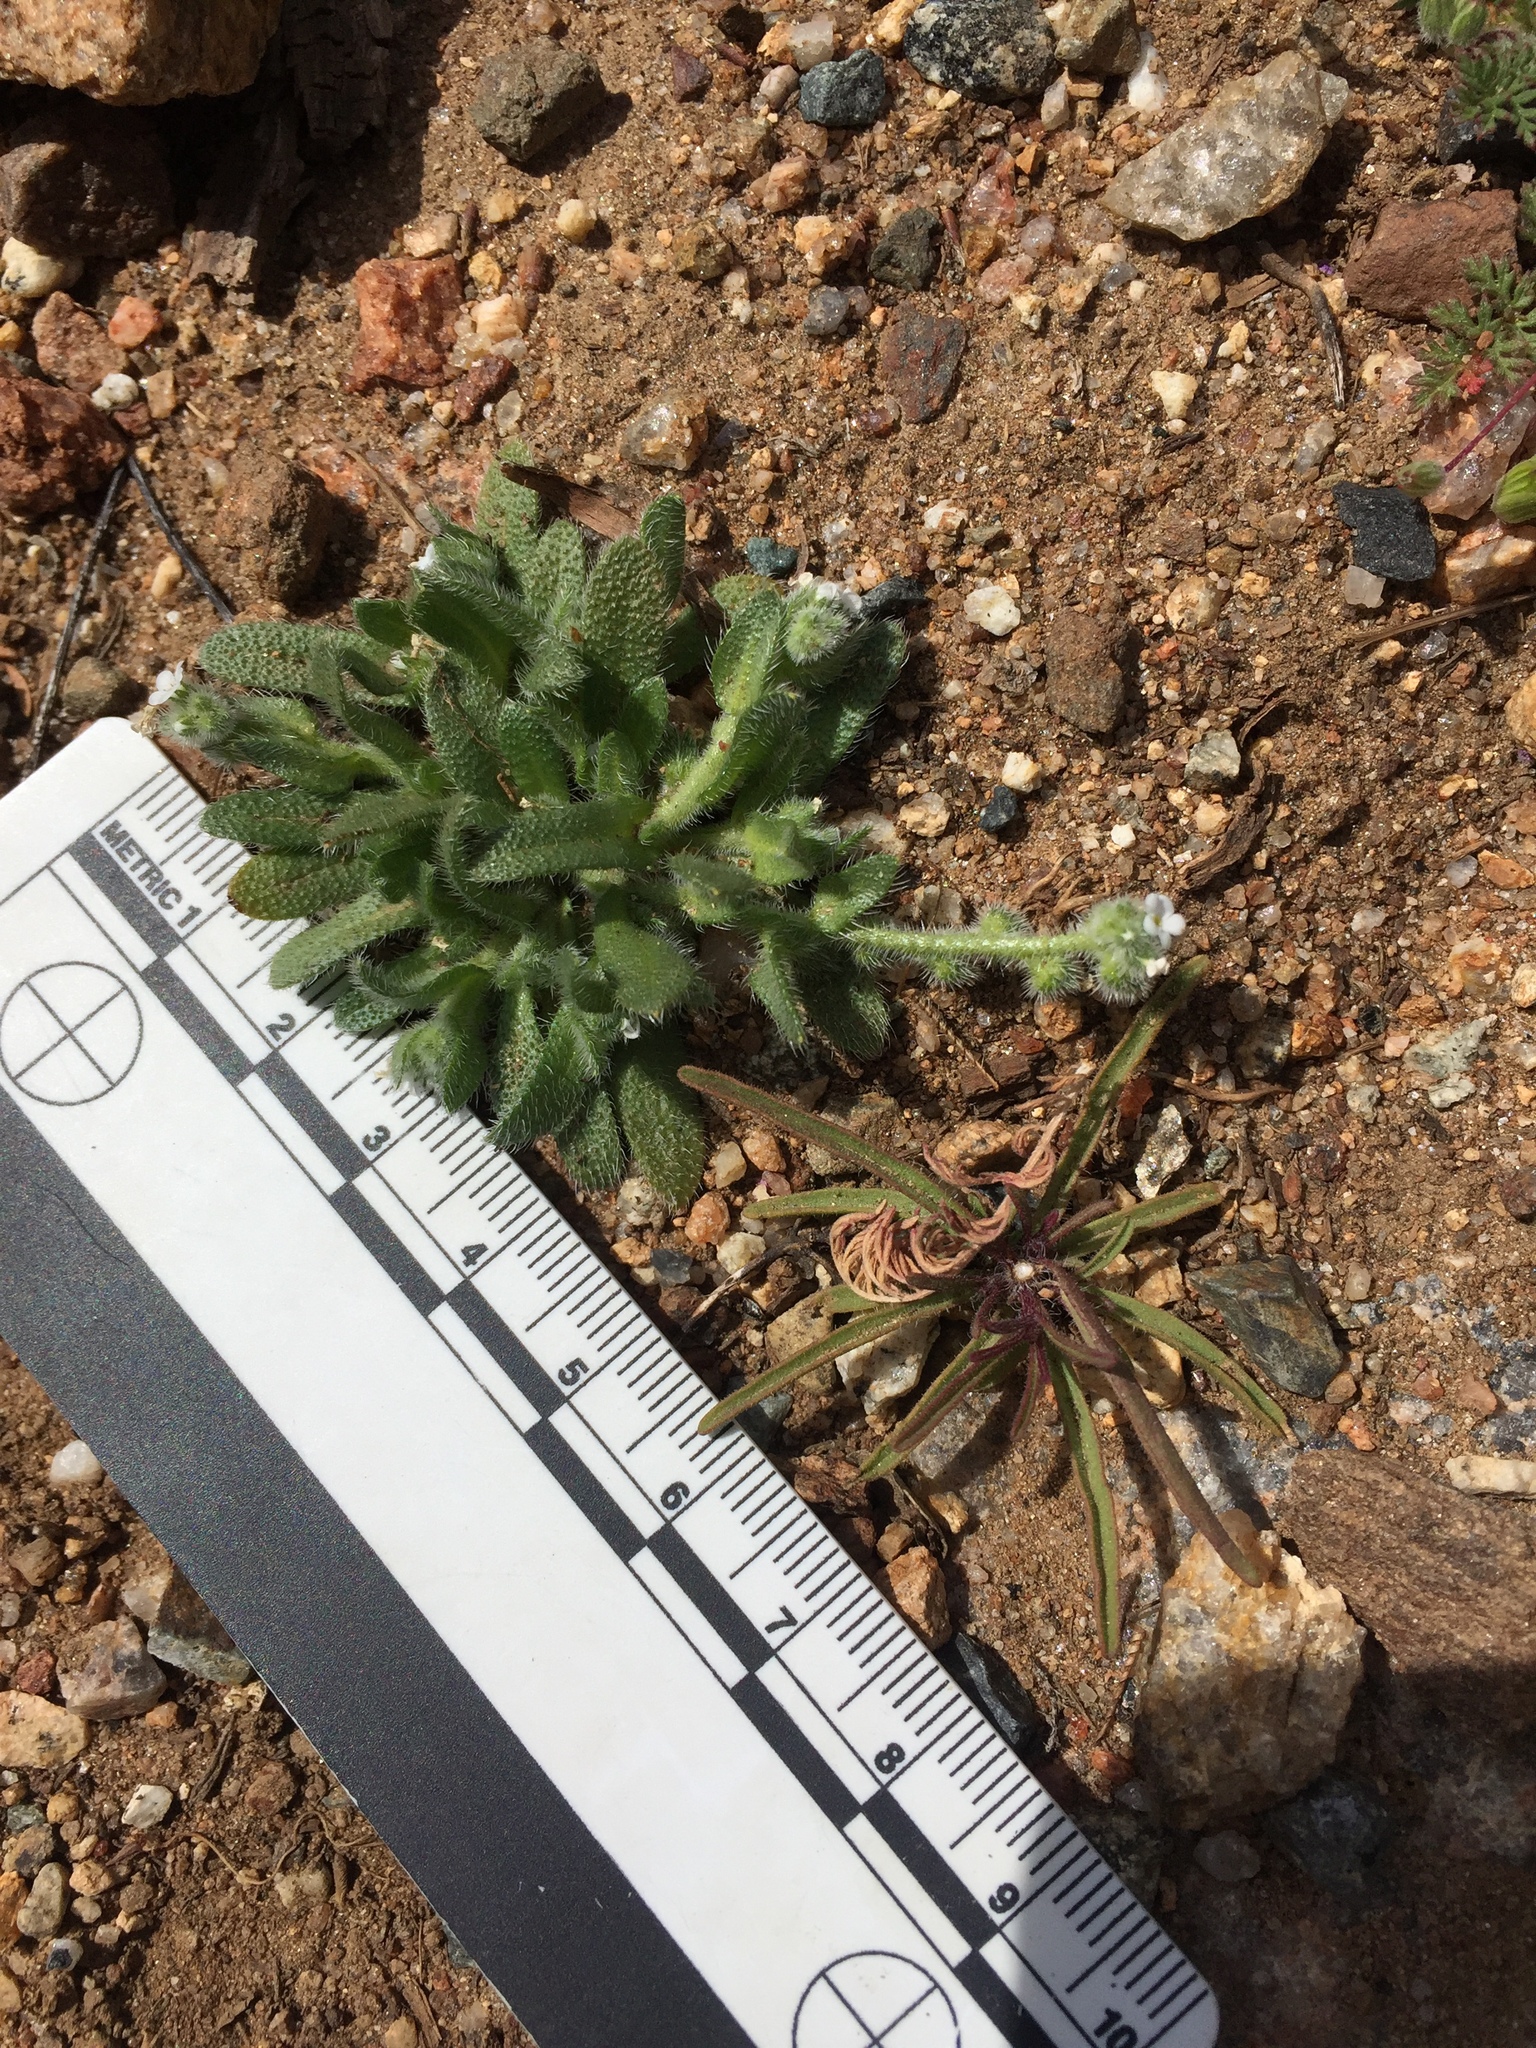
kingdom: Plantae
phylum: Tracheophyta
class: Magnoliopsida
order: Boraginales
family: Boraginaceae
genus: Plagiobothrys
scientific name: Plagiobothrys collinus
